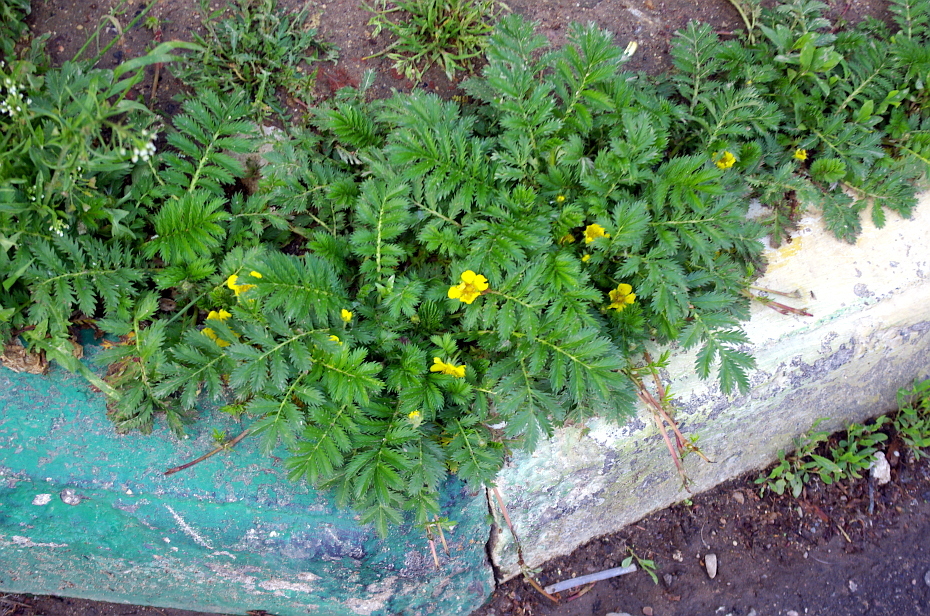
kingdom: Plantae
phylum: Tracheophyta
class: Magnoliopsida
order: Rosales
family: Rosaceae
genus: Argentina
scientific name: Argentina anserina
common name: Common silverweed
